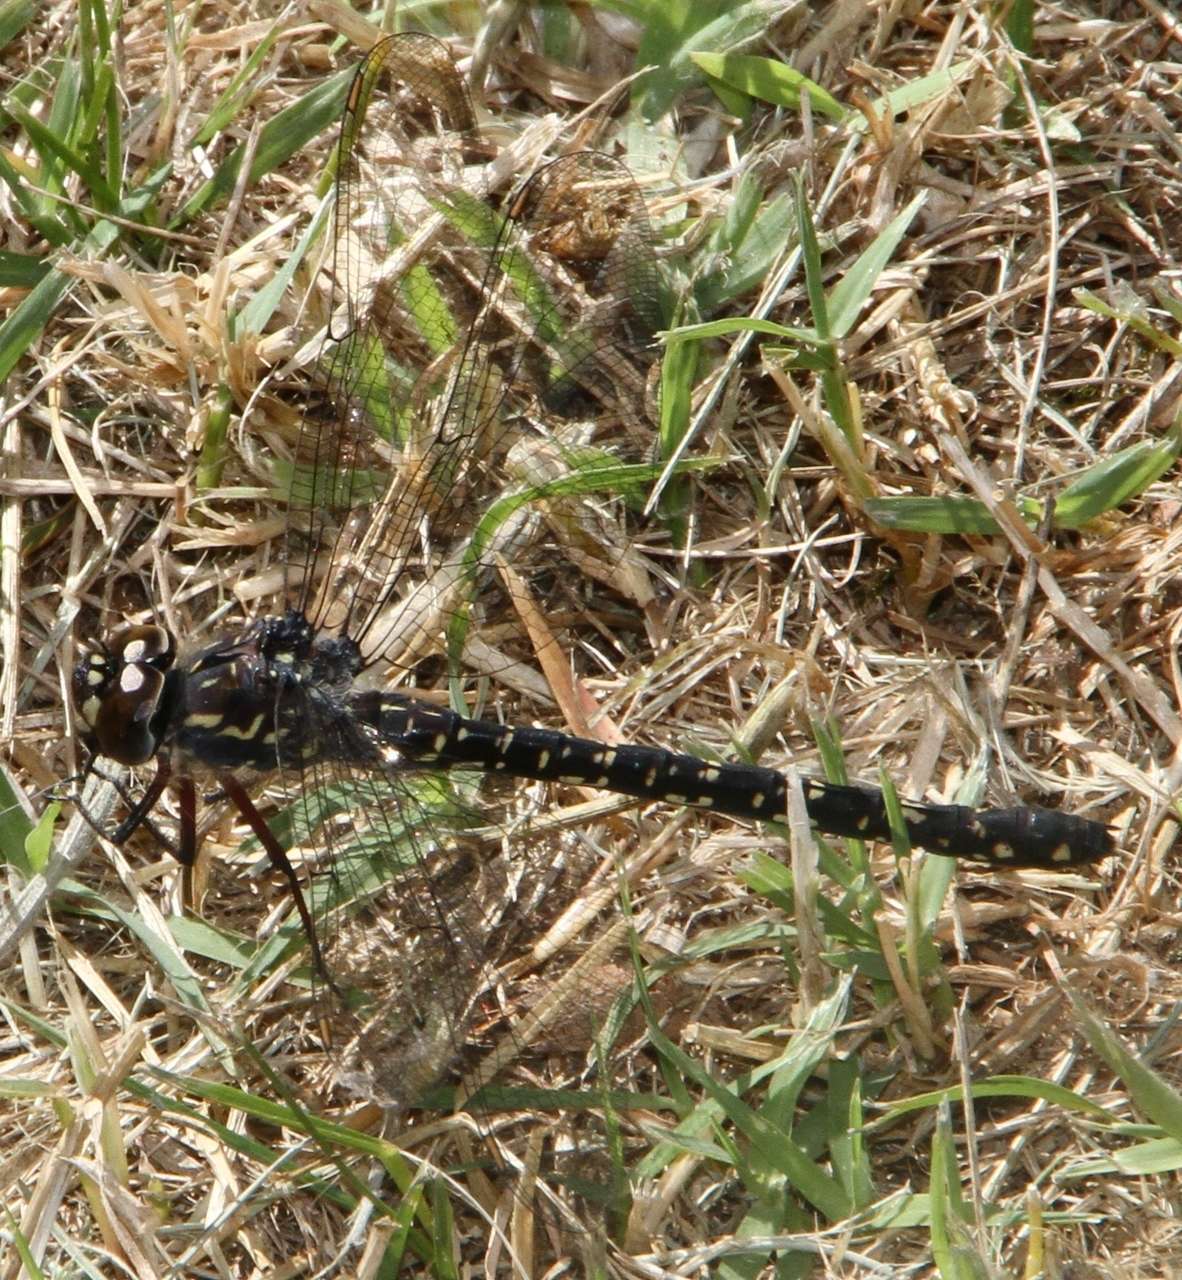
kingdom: Animalia
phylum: Arthropoda
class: Insecta
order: Odonata
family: Aeshnidae
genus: Austroaeschna
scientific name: Austroaeschna multipunctata
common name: Multi-spotted darner
